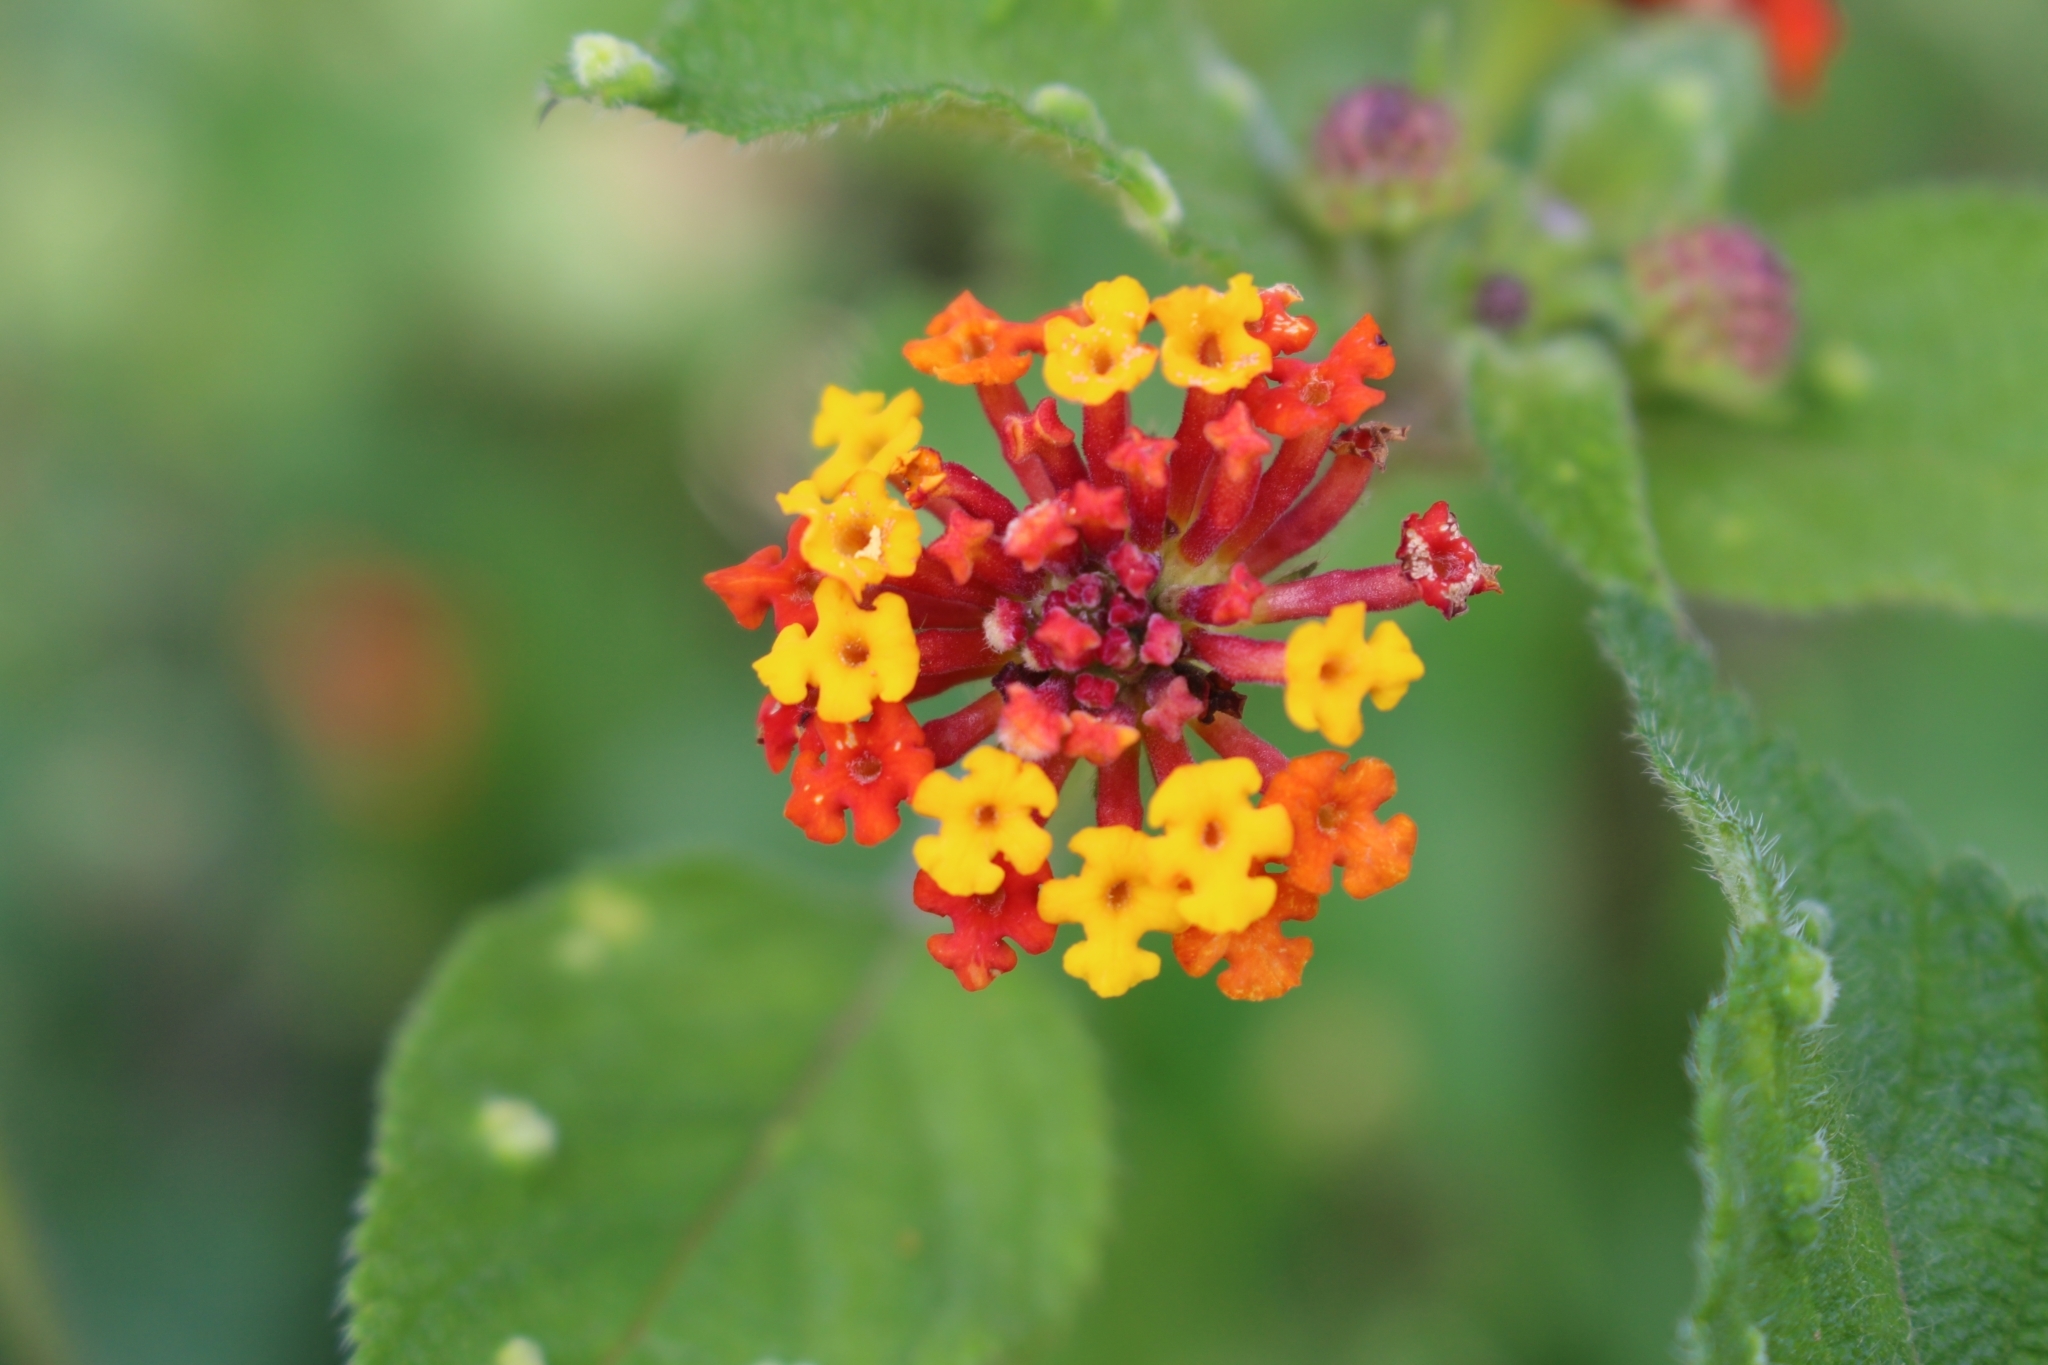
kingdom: Plantae
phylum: Tracheophyta
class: Magnoliopsida
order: Lamiales
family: Verbenaceae
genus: Lantana
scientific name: Lantana camara
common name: Lantana
